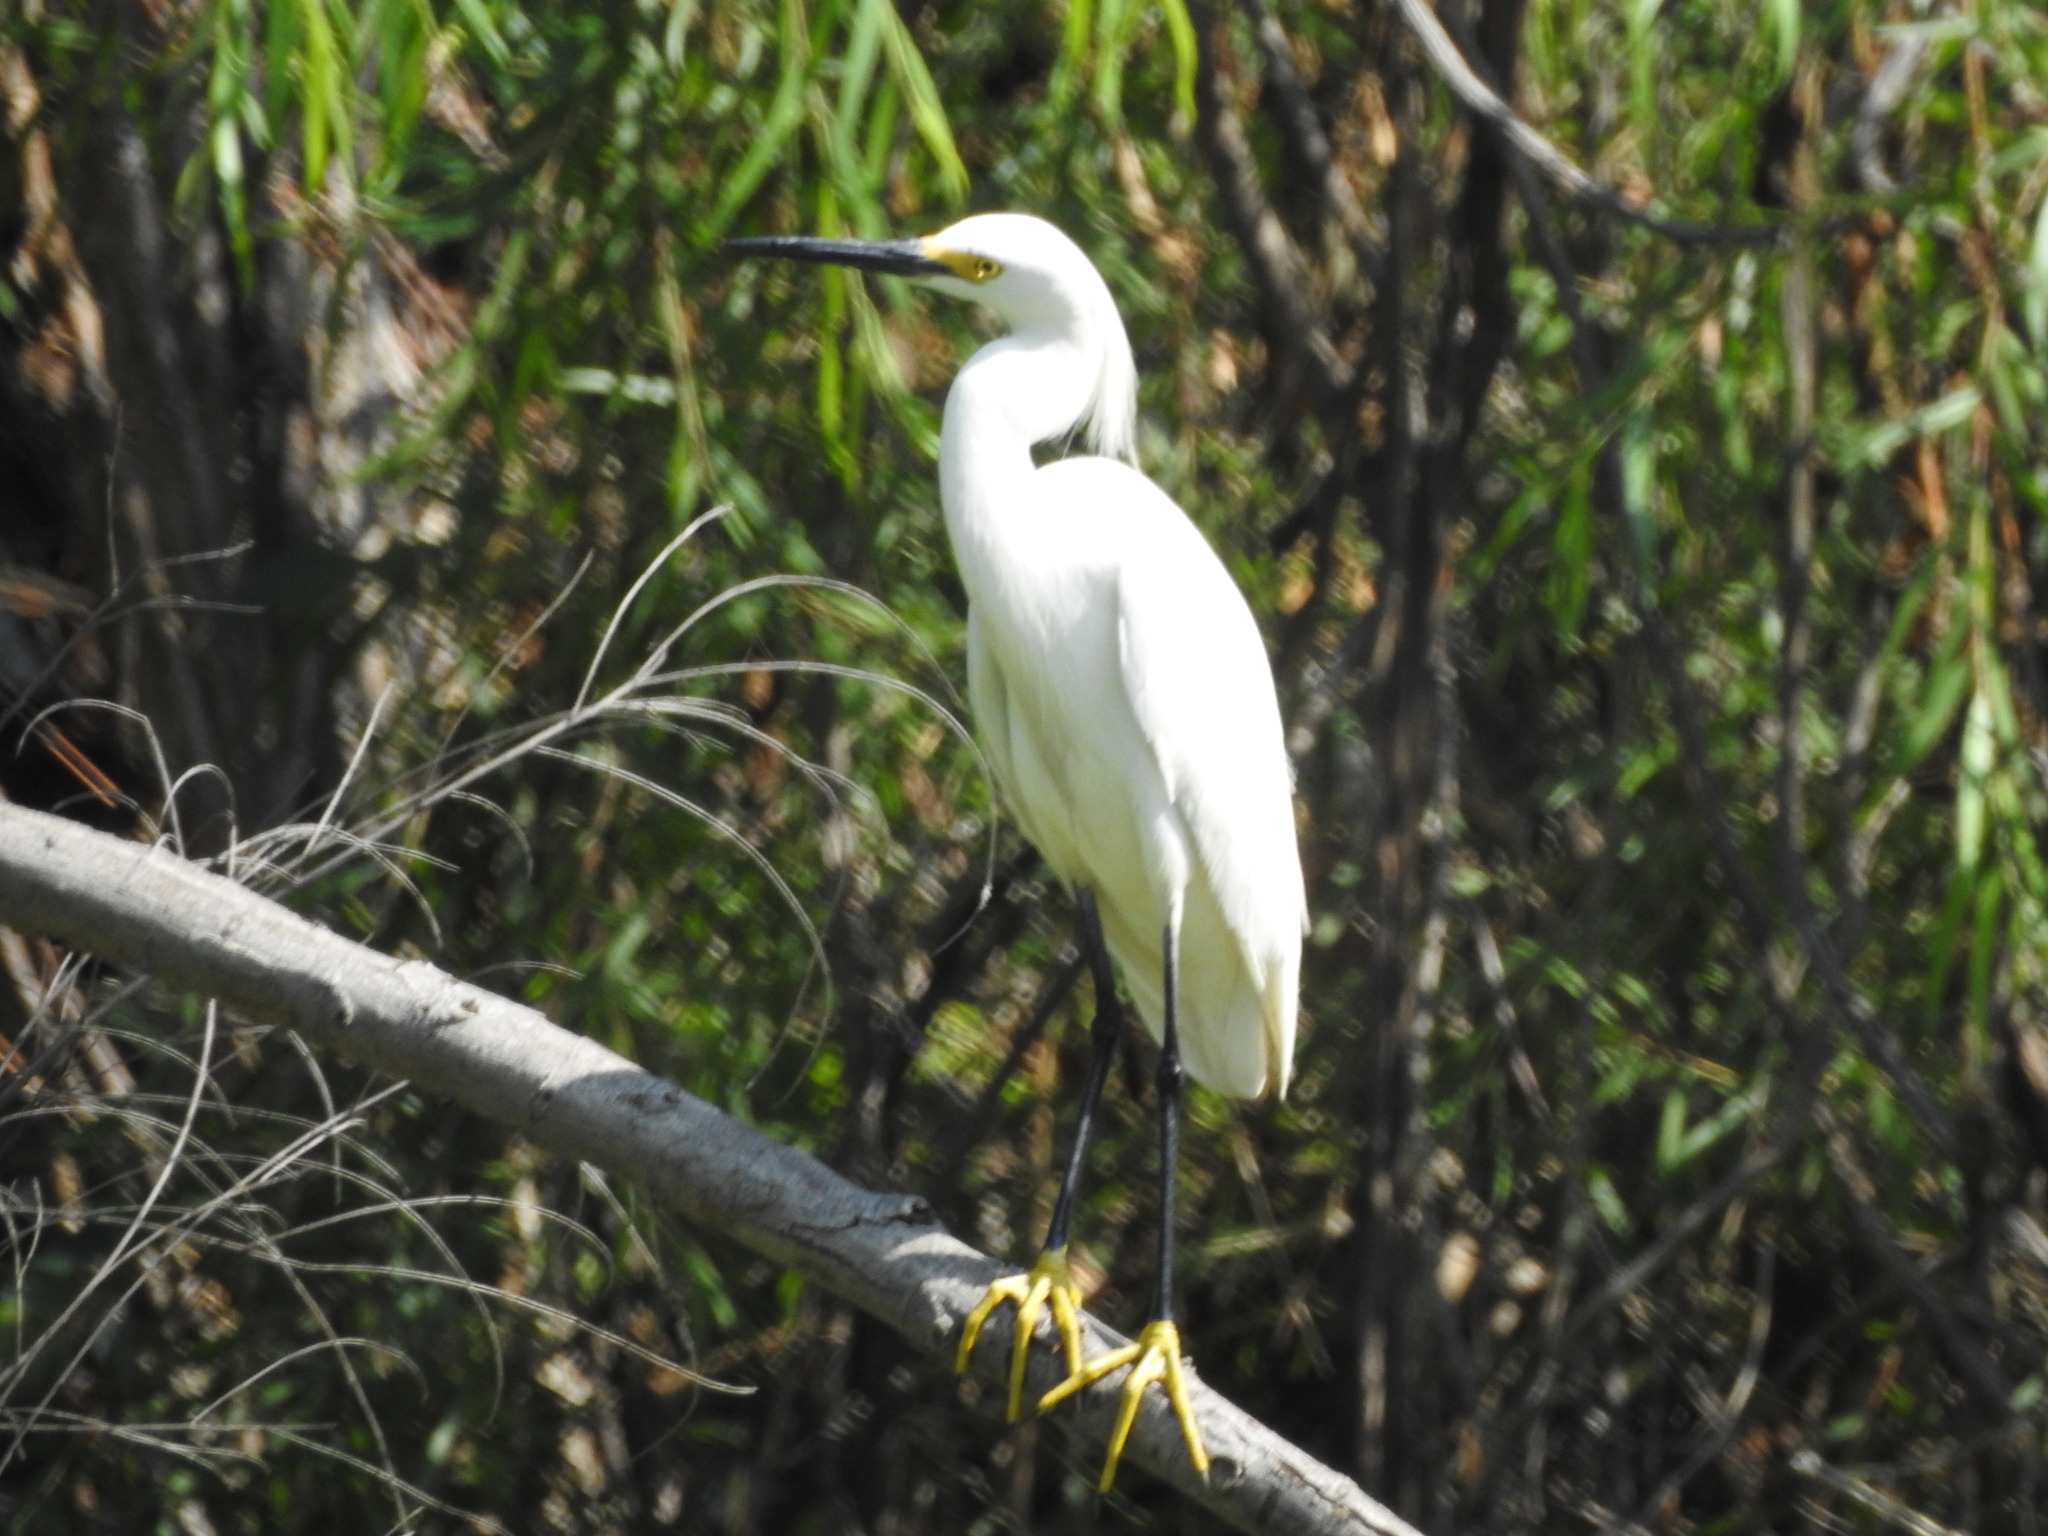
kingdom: Animalia
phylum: Chordata
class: Aves
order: Pelecaniformes
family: Ardeidae
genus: Egretta
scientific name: Egretta thula
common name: Snowy egret
